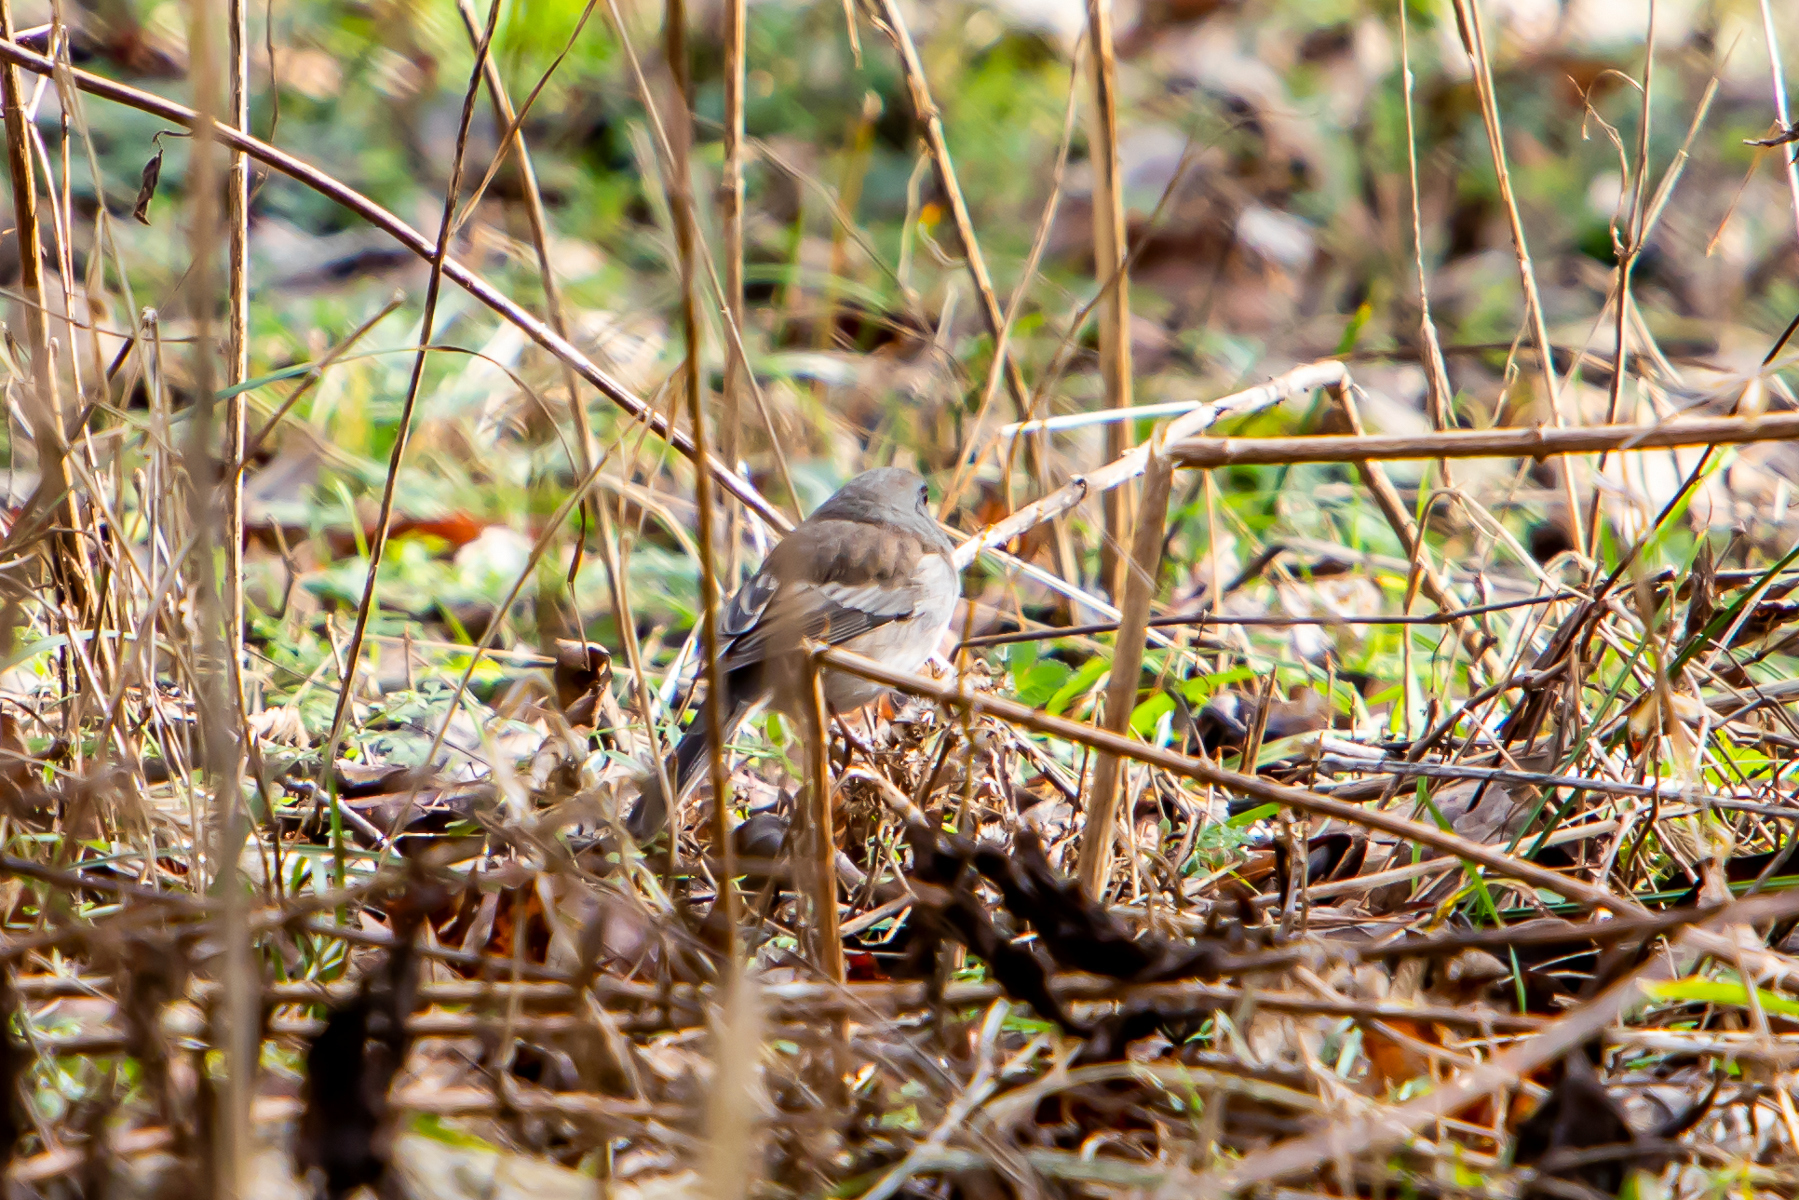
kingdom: Animalia
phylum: Chordata
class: Aves
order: Passeriformes
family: Passerellidae
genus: Junco
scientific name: Junco hyemalis
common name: Dark-eyed junco
